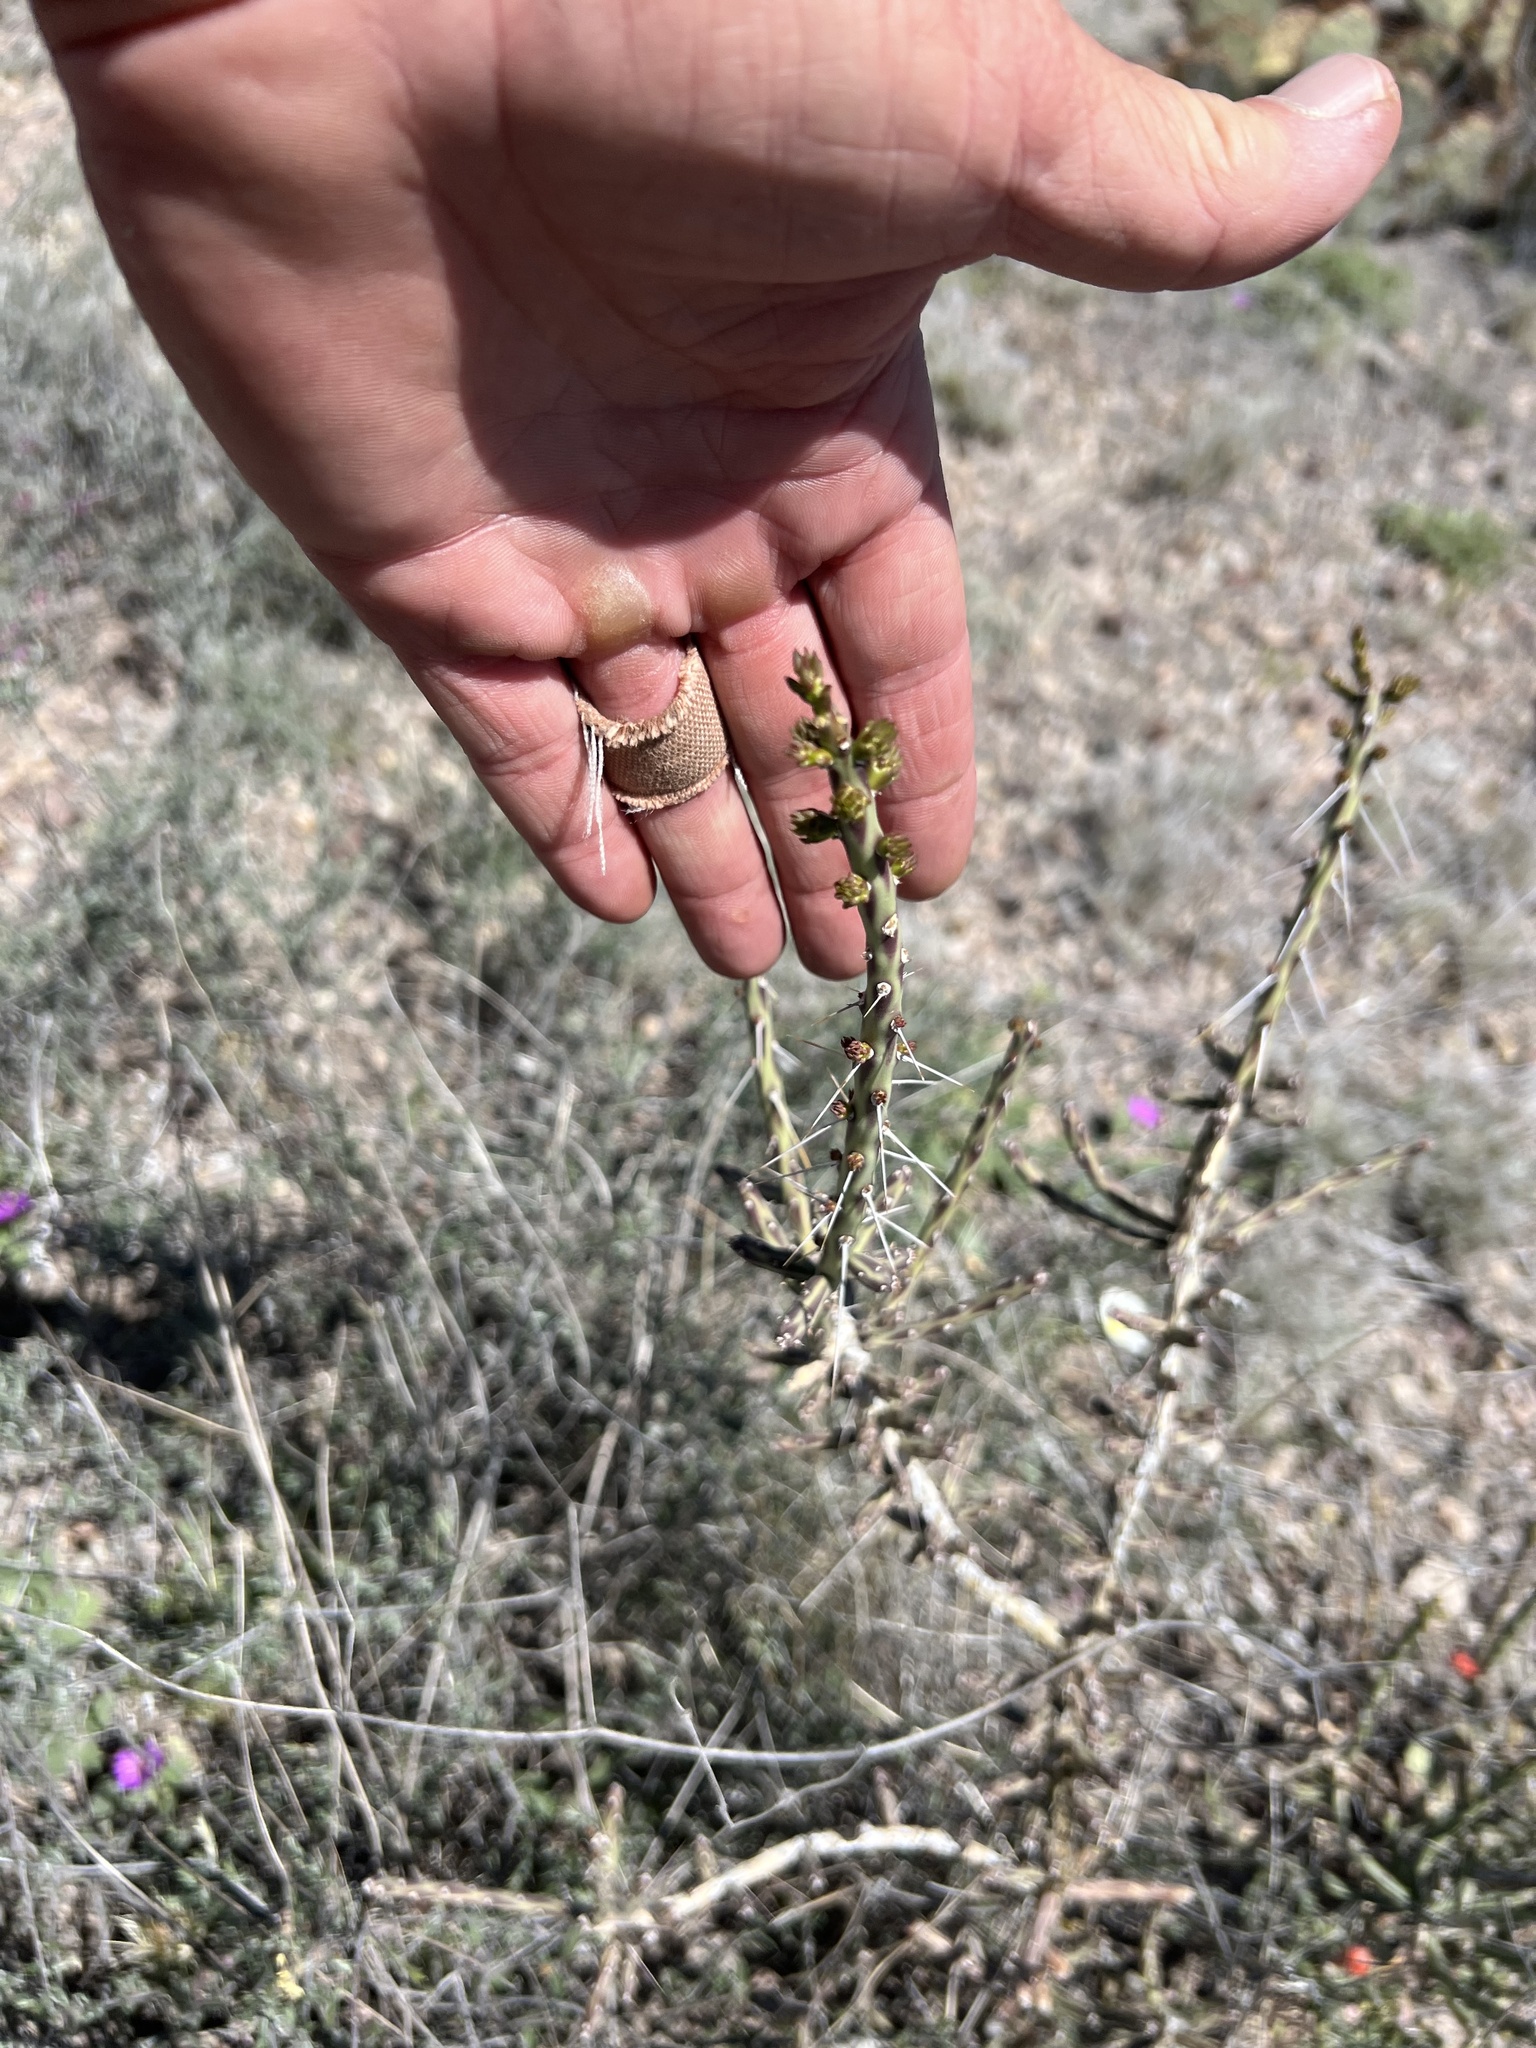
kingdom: Plantae
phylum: Tracheophyta
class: Magnoliopsida
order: Caryophyllales
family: Cactaceae
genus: Cylindropuntia
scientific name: Cylindropuntia leptocaulis
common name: Christmas cactus
